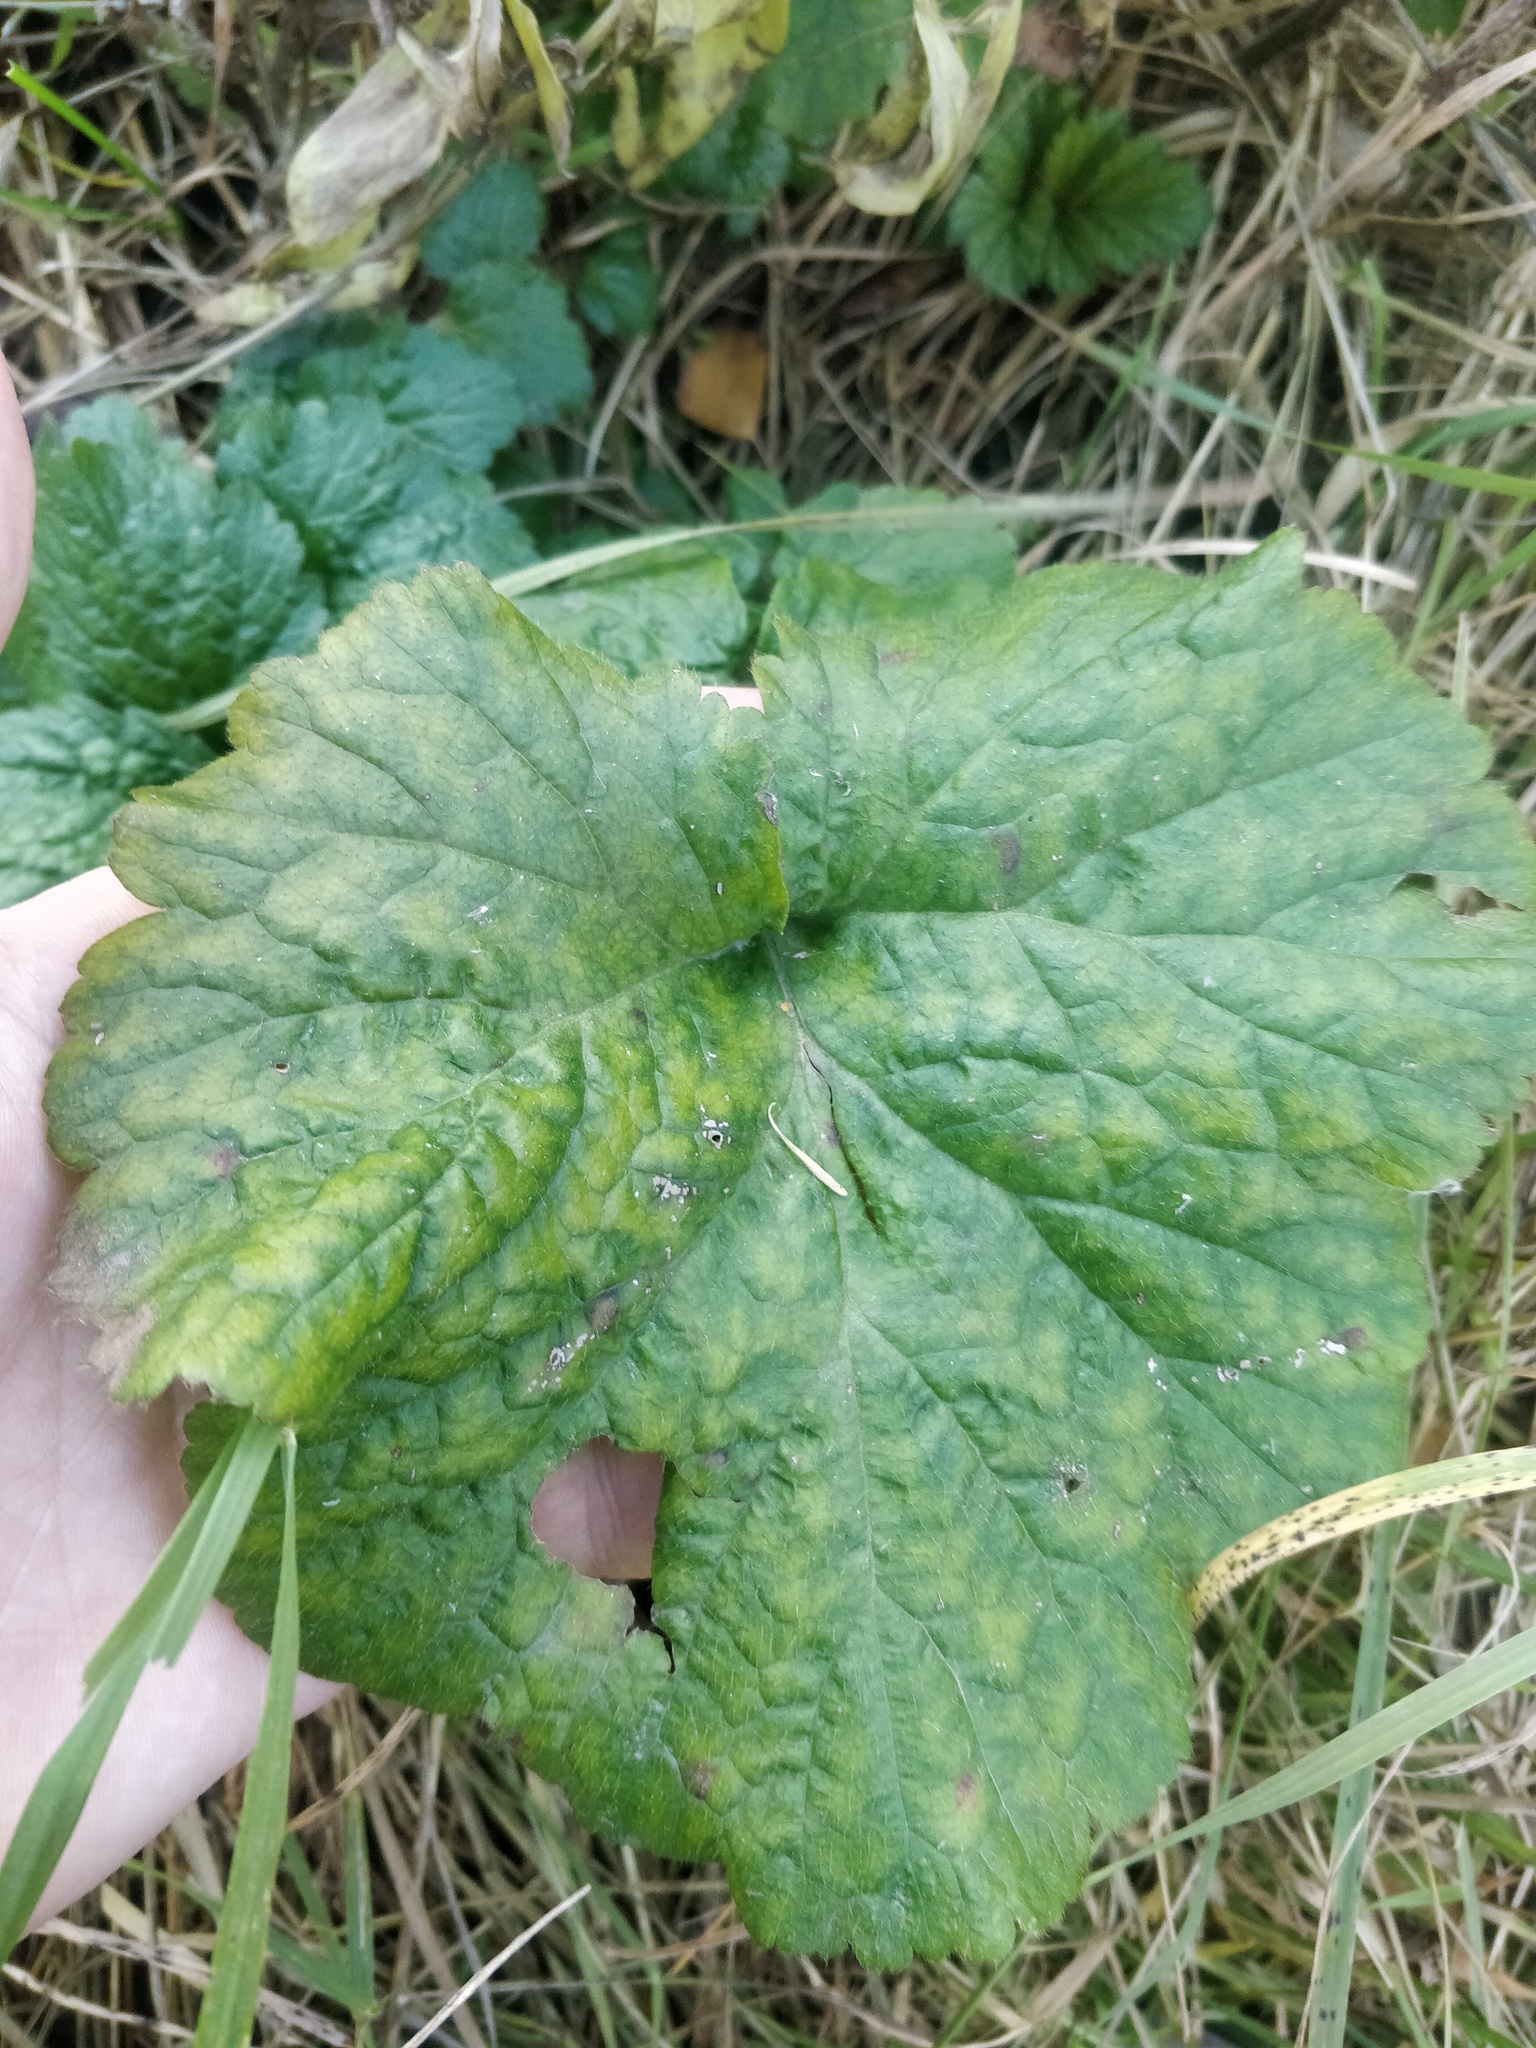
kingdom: Plantae
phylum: Tracheophyta
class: Magnoliopsida
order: Rosales
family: Rosaceae
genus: Geum
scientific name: Geum
